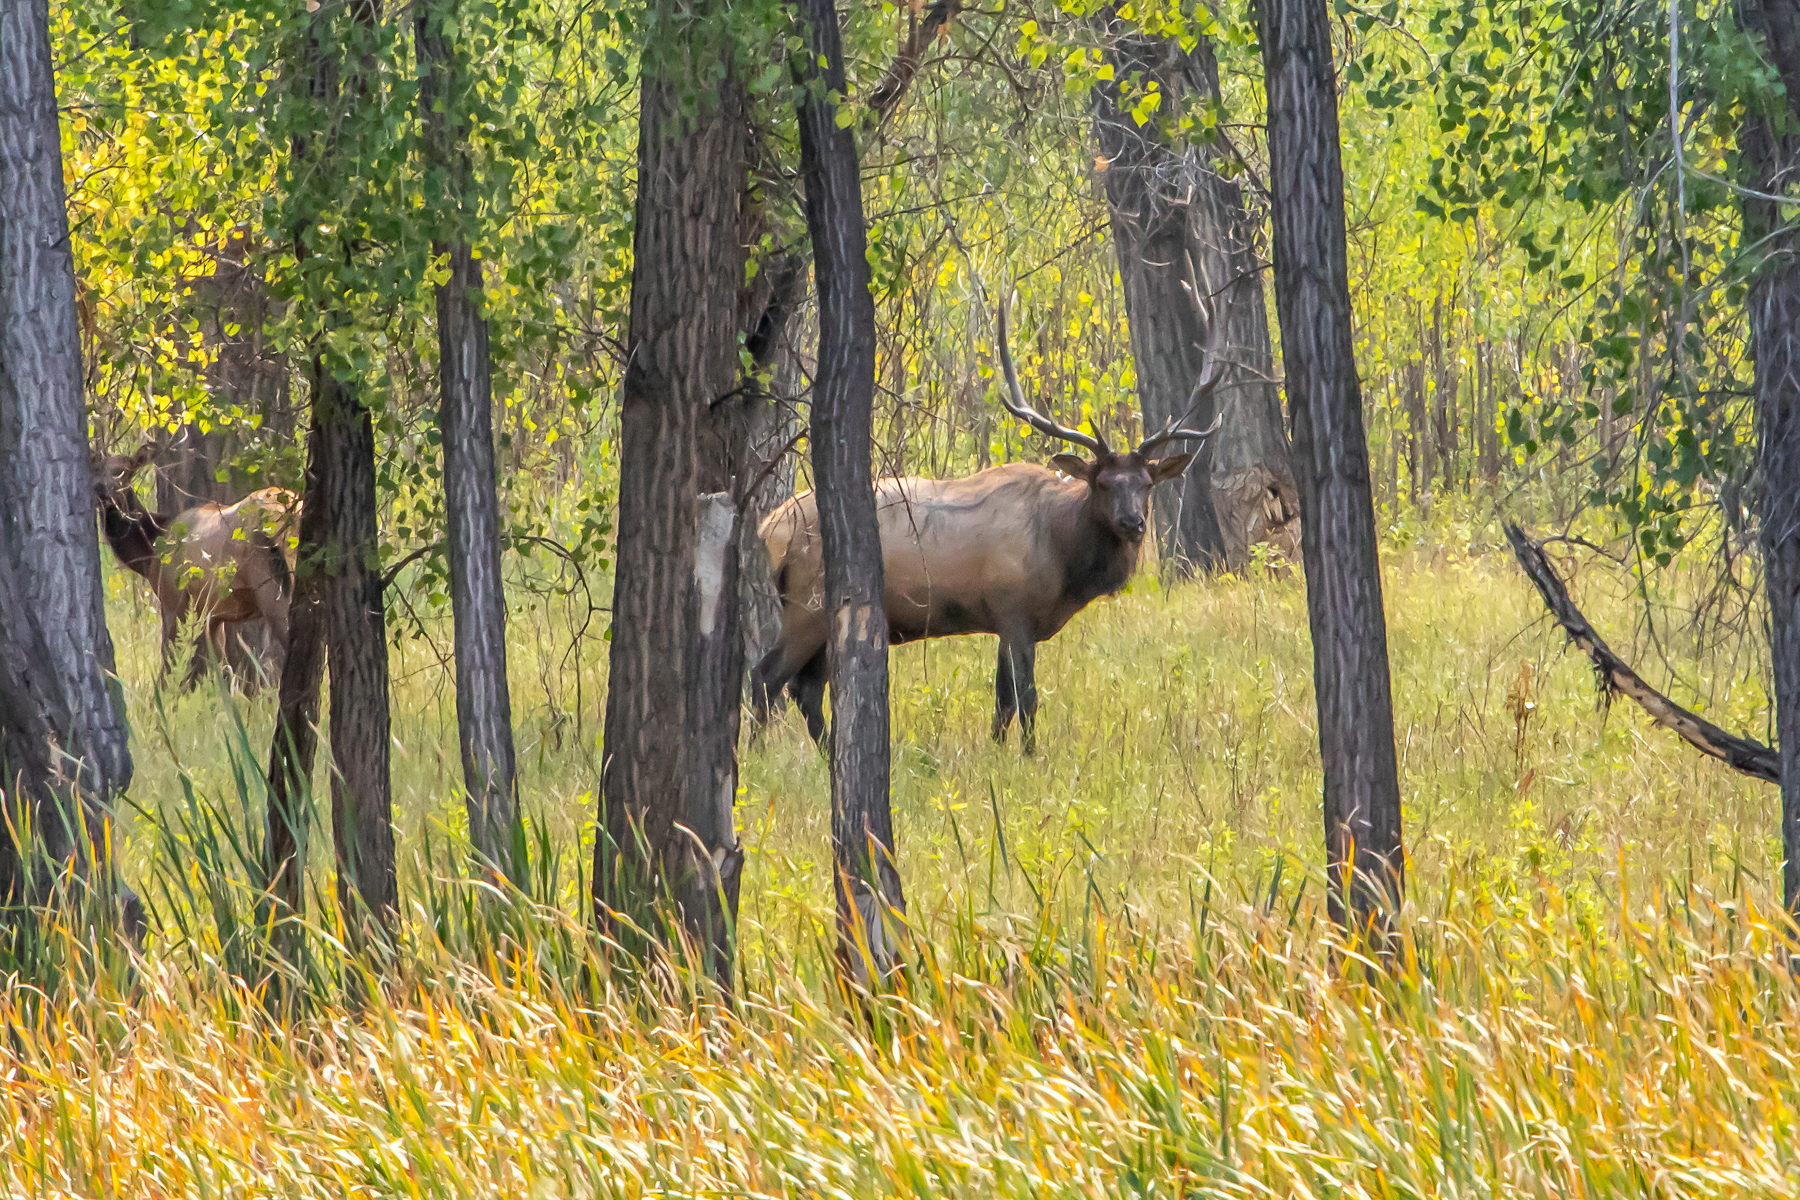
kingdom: Animalia
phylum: Chordata
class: Mammalia
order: Artiodactyla
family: Cervidae
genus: Cervus
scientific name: Cervus elaphus
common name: Red deer
